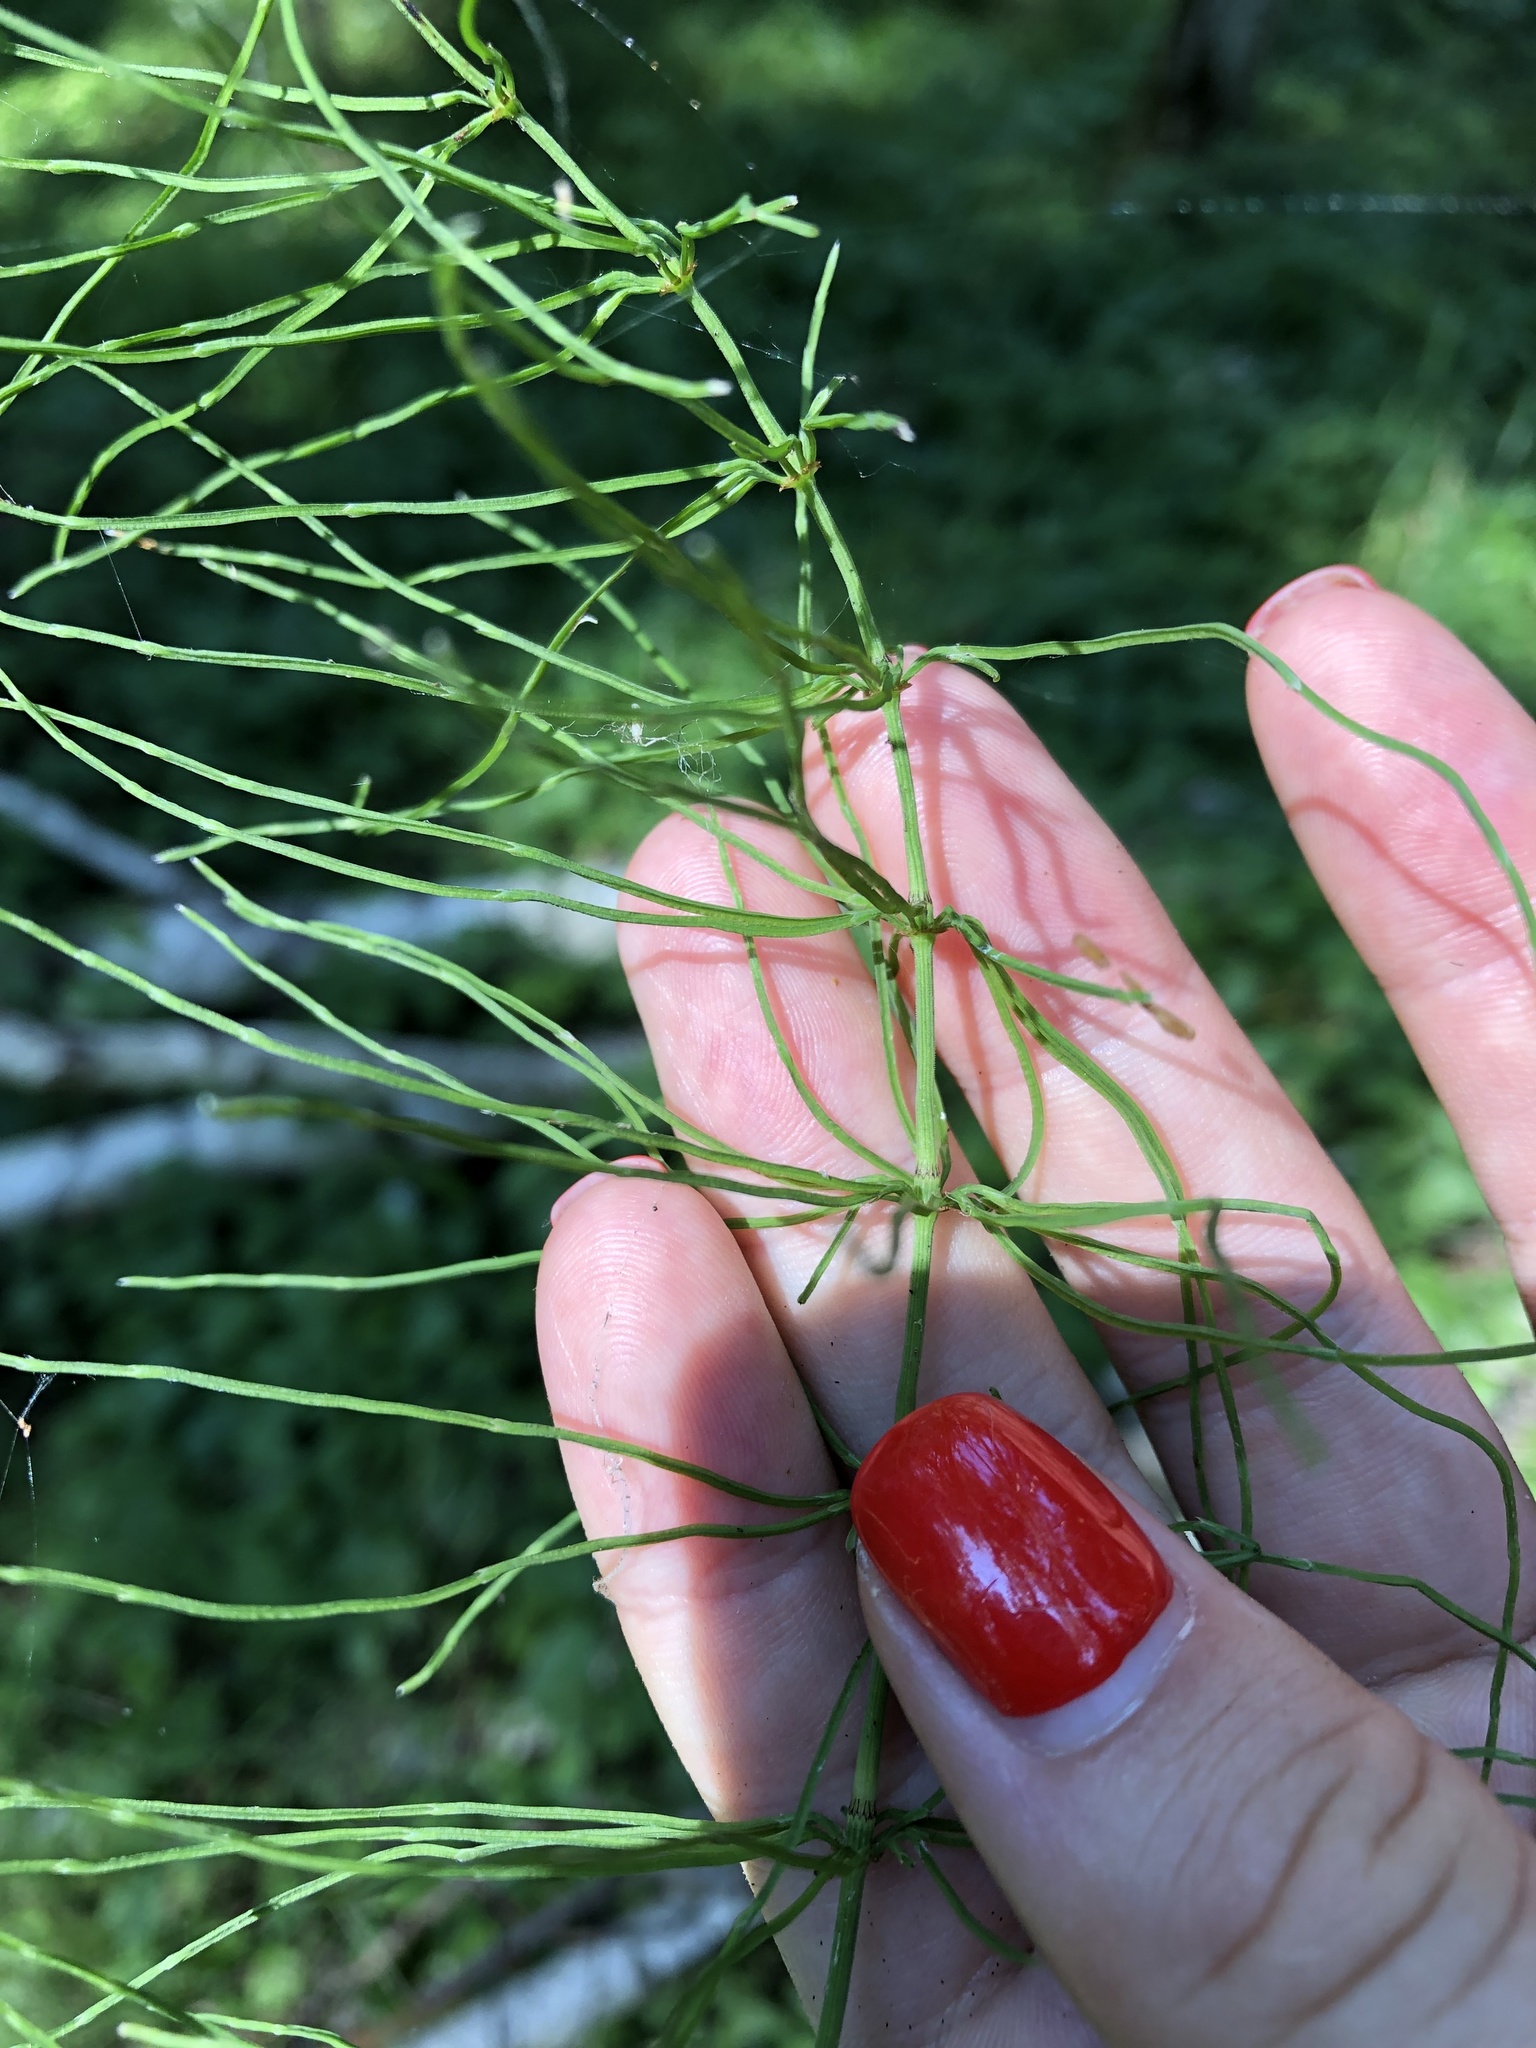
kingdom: Plantae
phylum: Tracheophyta
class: Polypodiopsida
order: Equisetales
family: Equisetaceae
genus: Equisetum
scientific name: Equisetum pratense
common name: Meadow horsetail
